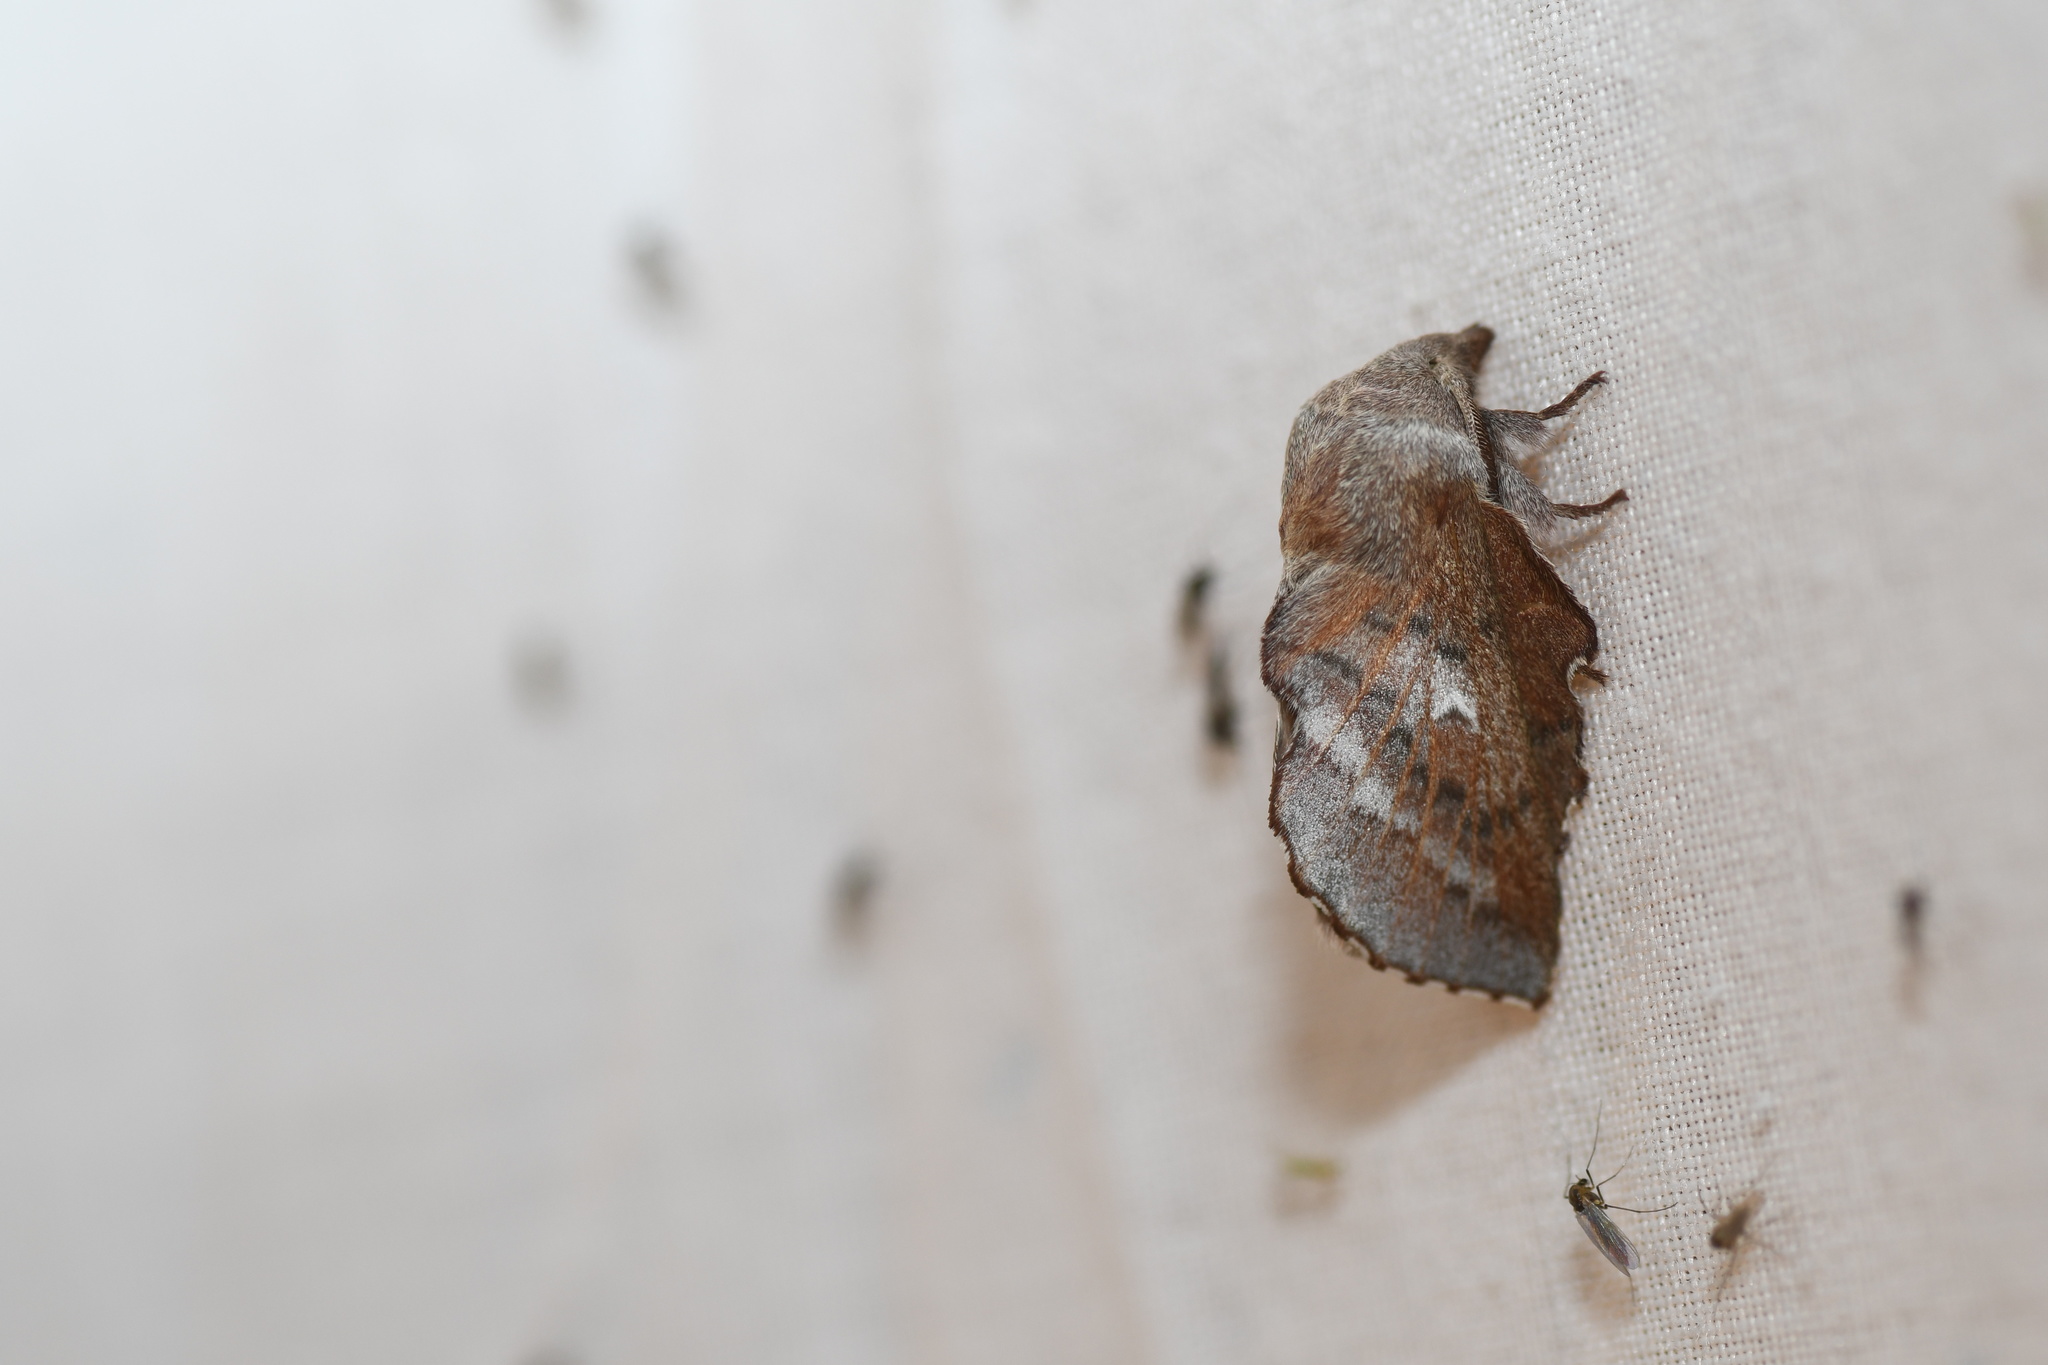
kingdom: Animalia
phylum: Arthropoda
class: Insecta
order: Lepidoptera
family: Lasiocampidae
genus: Phyllodesma
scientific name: Phyllodesma americana
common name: American lappet moth
